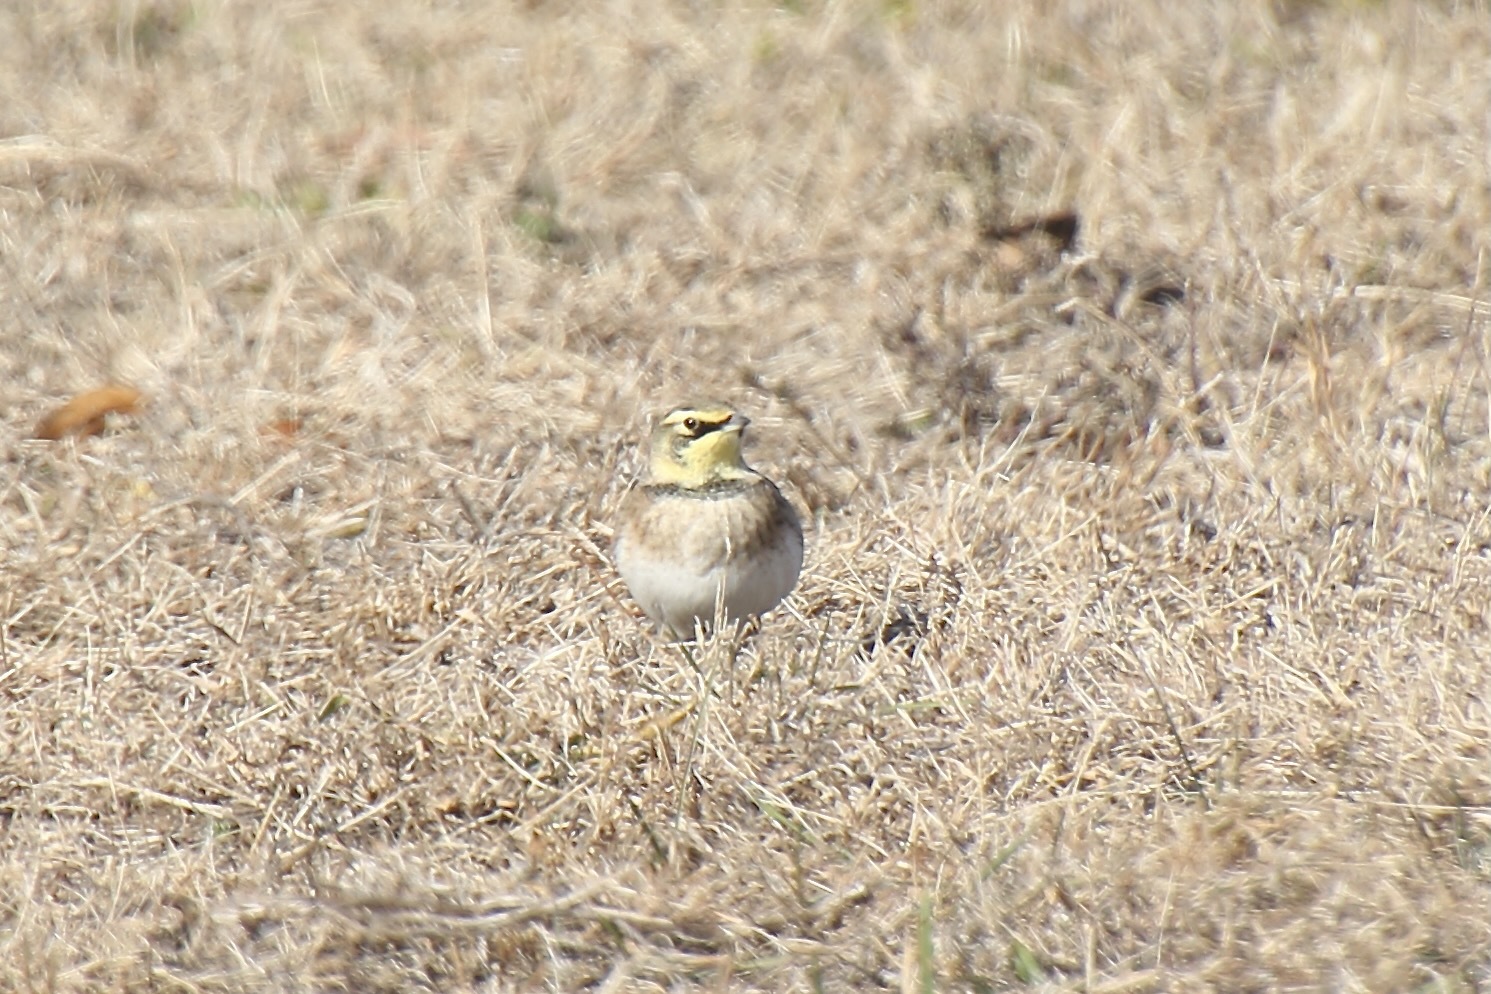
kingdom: Animalia
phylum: Chordata
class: Aves
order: Passeriformes
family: Alaudidae
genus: Eremophila
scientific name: Eremophila alpestris
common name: Horned lark
